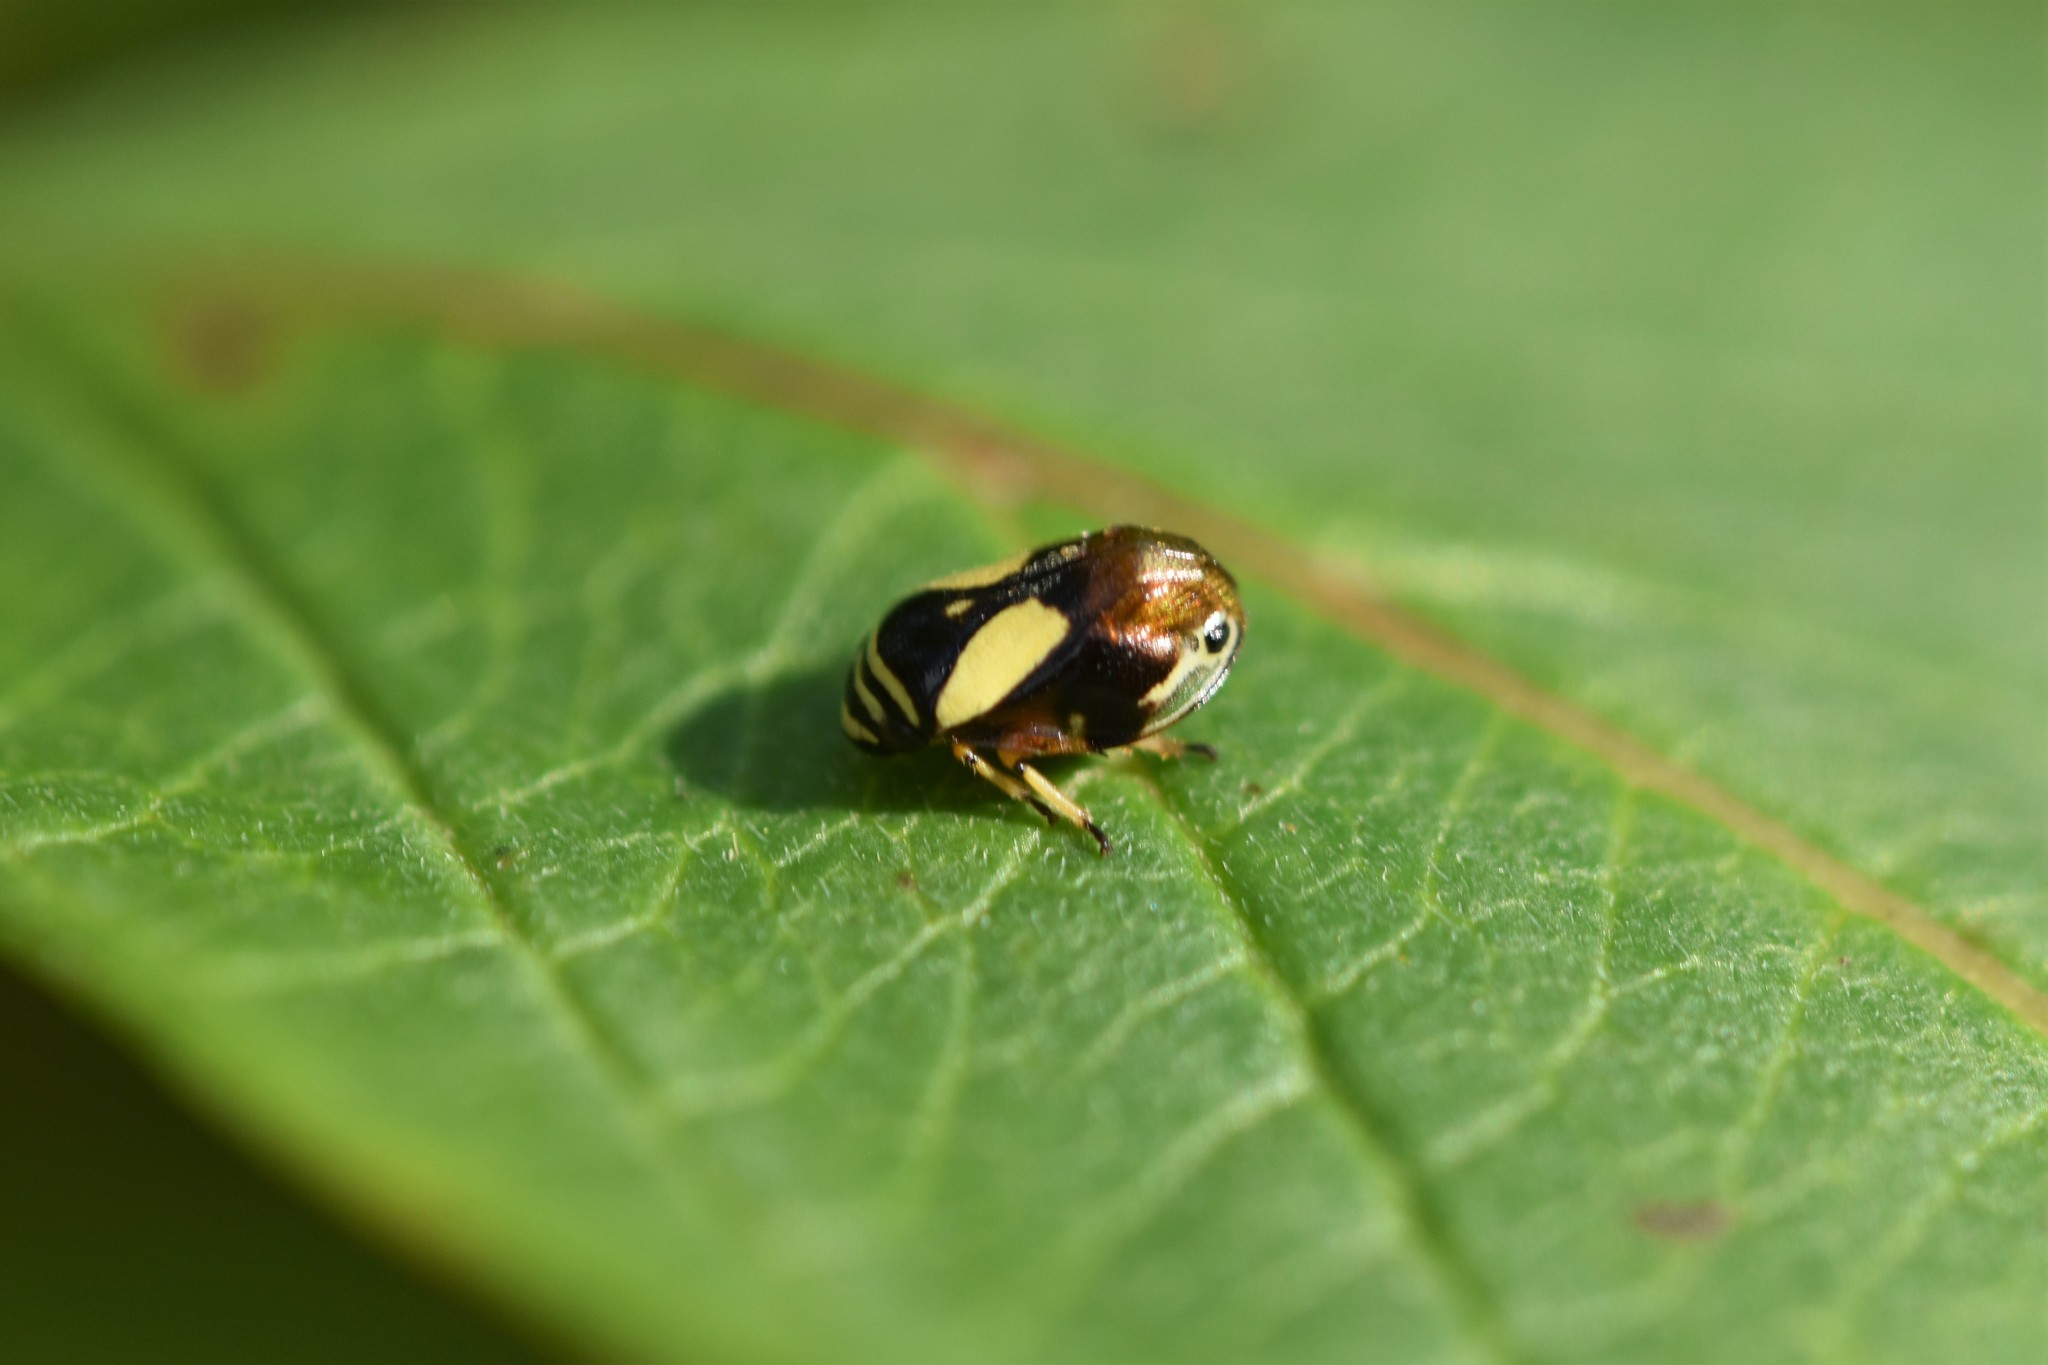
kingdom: Animalia
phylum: Arthropoda
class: Insecta
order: Hemiptera
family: Clastopteridae
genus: Clastoptera
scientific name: Clastoptera proteus
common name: Dogwood spittlebug
